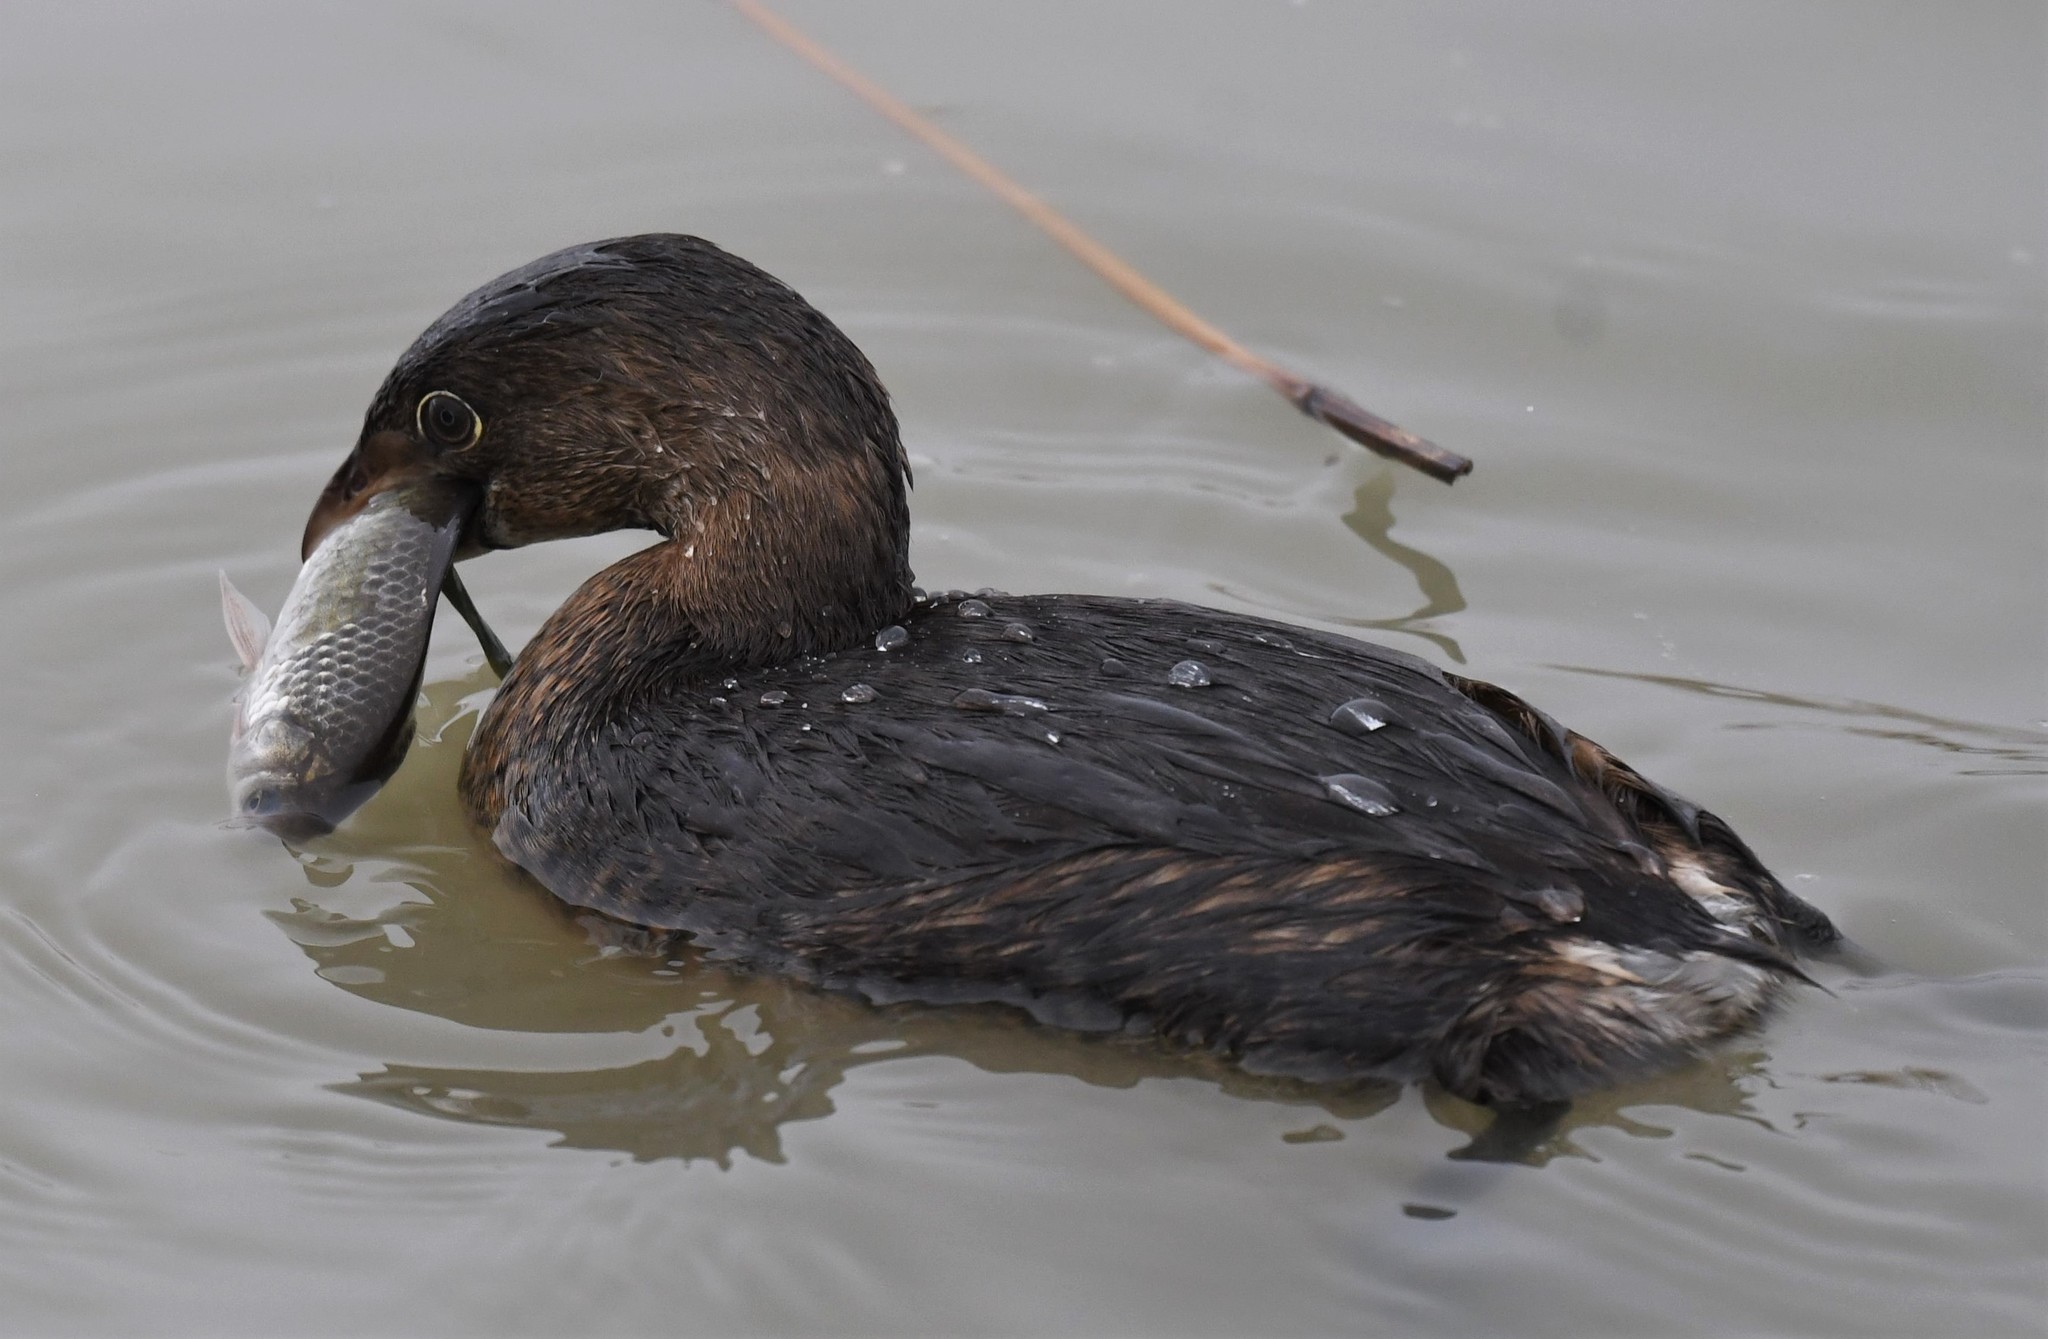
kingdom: Animalia
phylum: Chordata
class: Aves
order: Podicipediformes
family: Podicipedidae
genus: Podilymbus
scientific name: Podilymbus podiceps
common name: Pied-billed grebe
